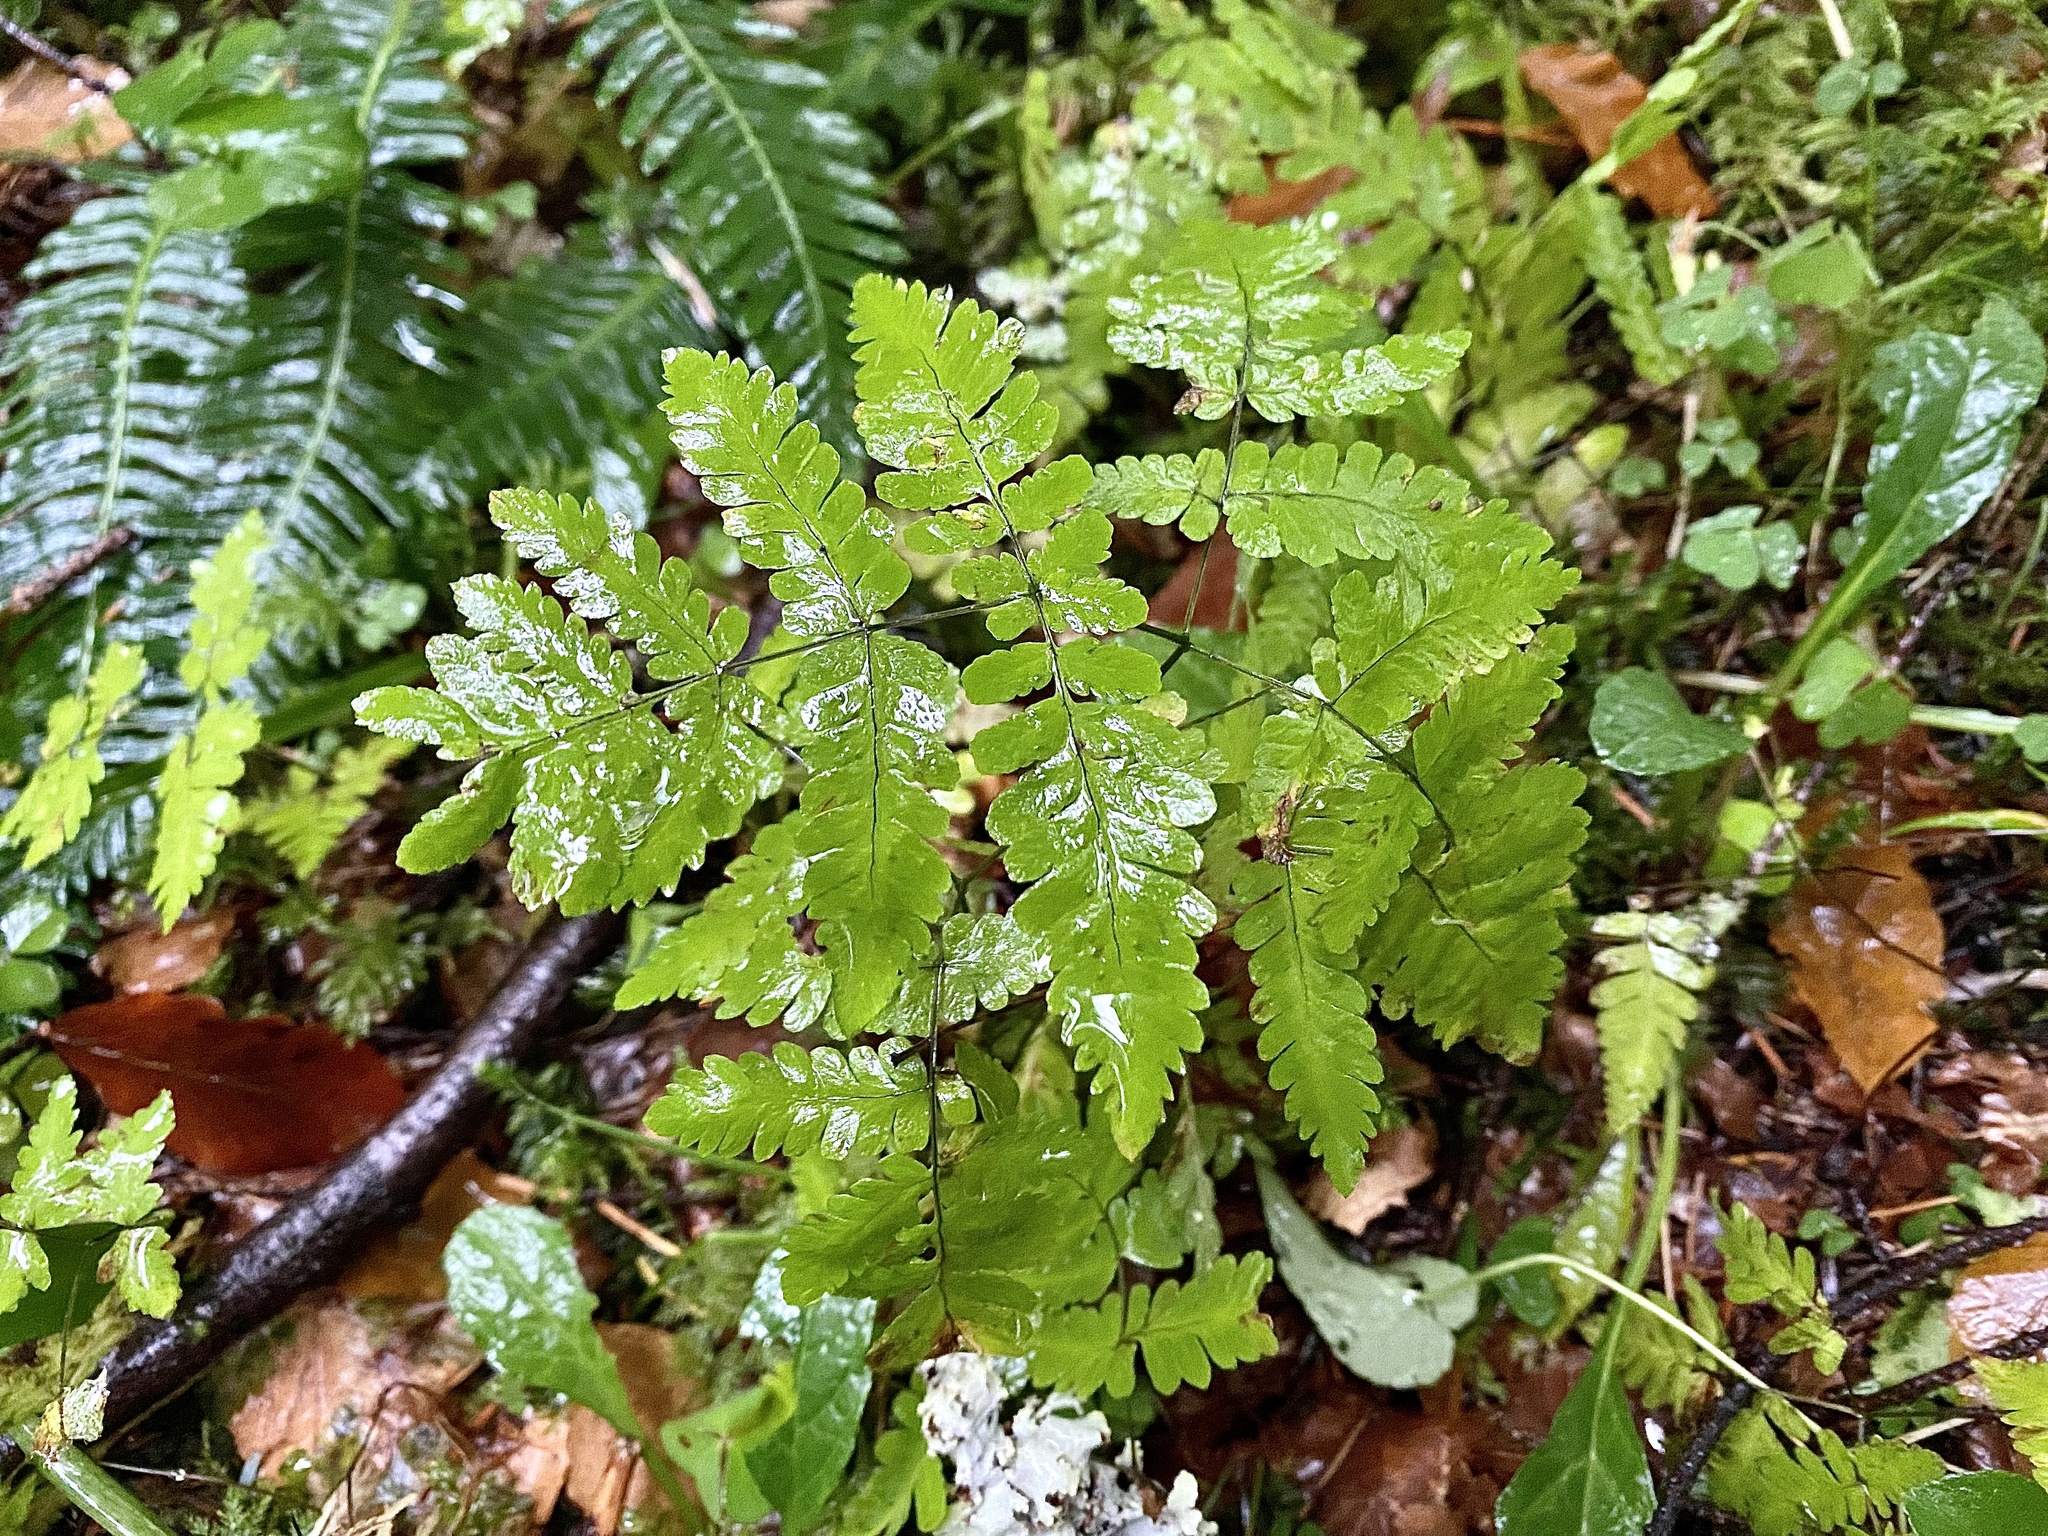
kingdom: Plantae
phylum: Tracheophyta
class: Polypodiopsida
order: Polypodiales
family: Cystopteridaceae
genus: Gymnocarpium
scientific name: Gymnocarpium dryopteris
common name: Oak fern
